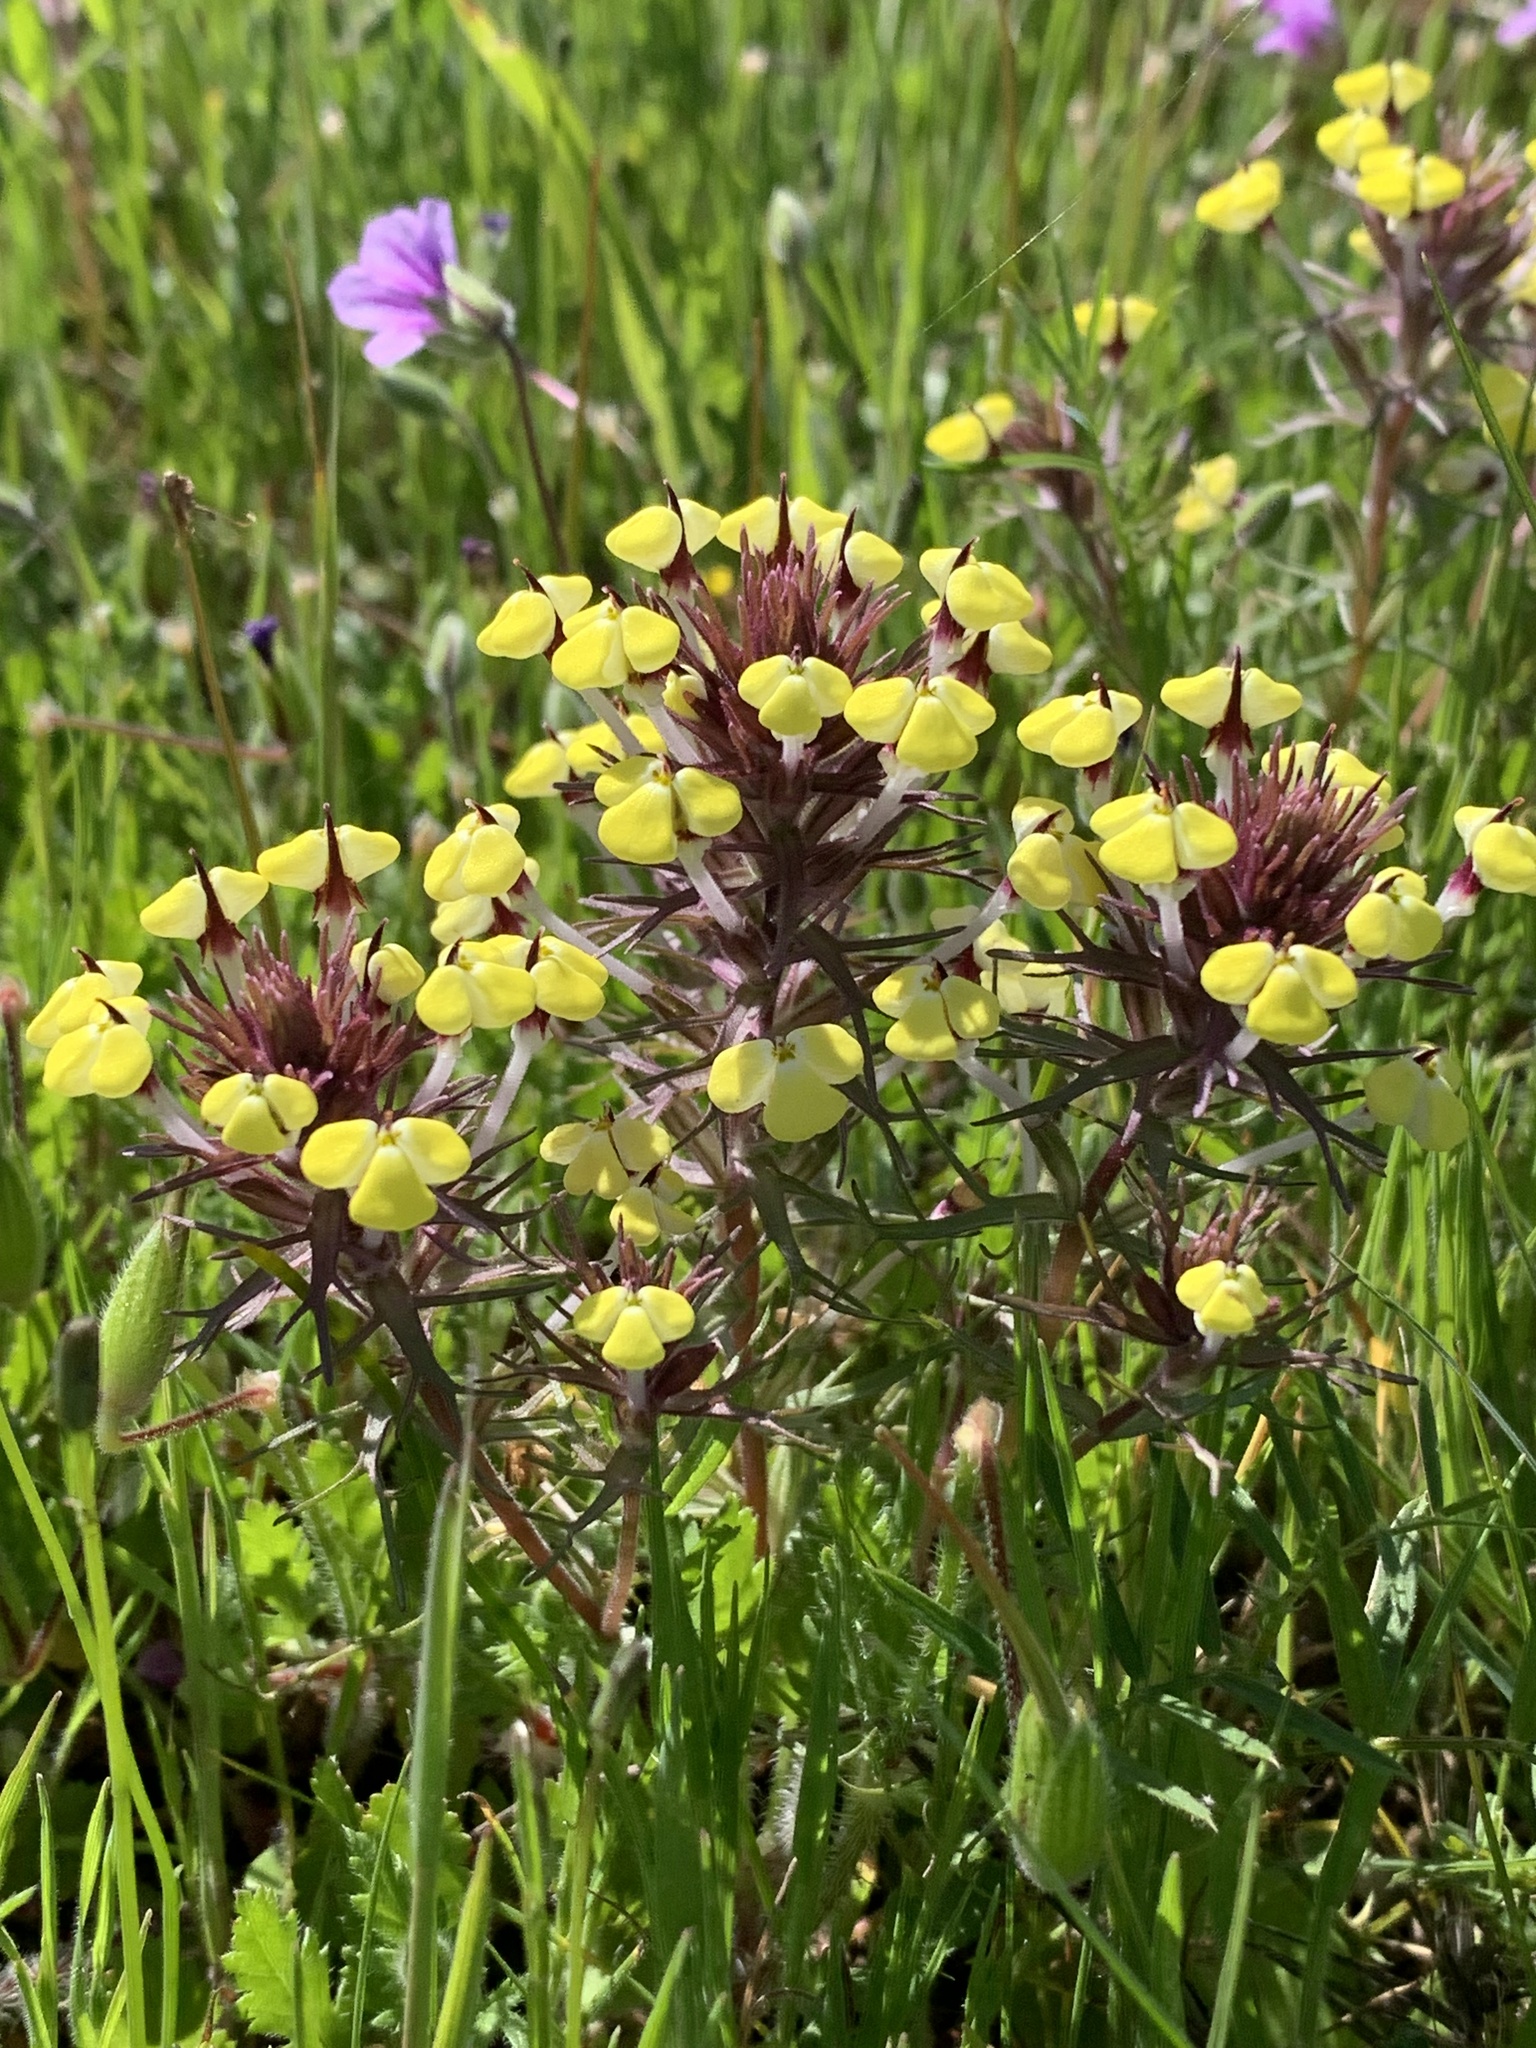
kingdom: Plantae
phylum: Tracheophyta
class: Magnoliopsida
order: Lamiales
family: Orobanchaceae
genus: Triphysaria
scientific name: Triphysaria eriantha
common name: Johnny-tuck
